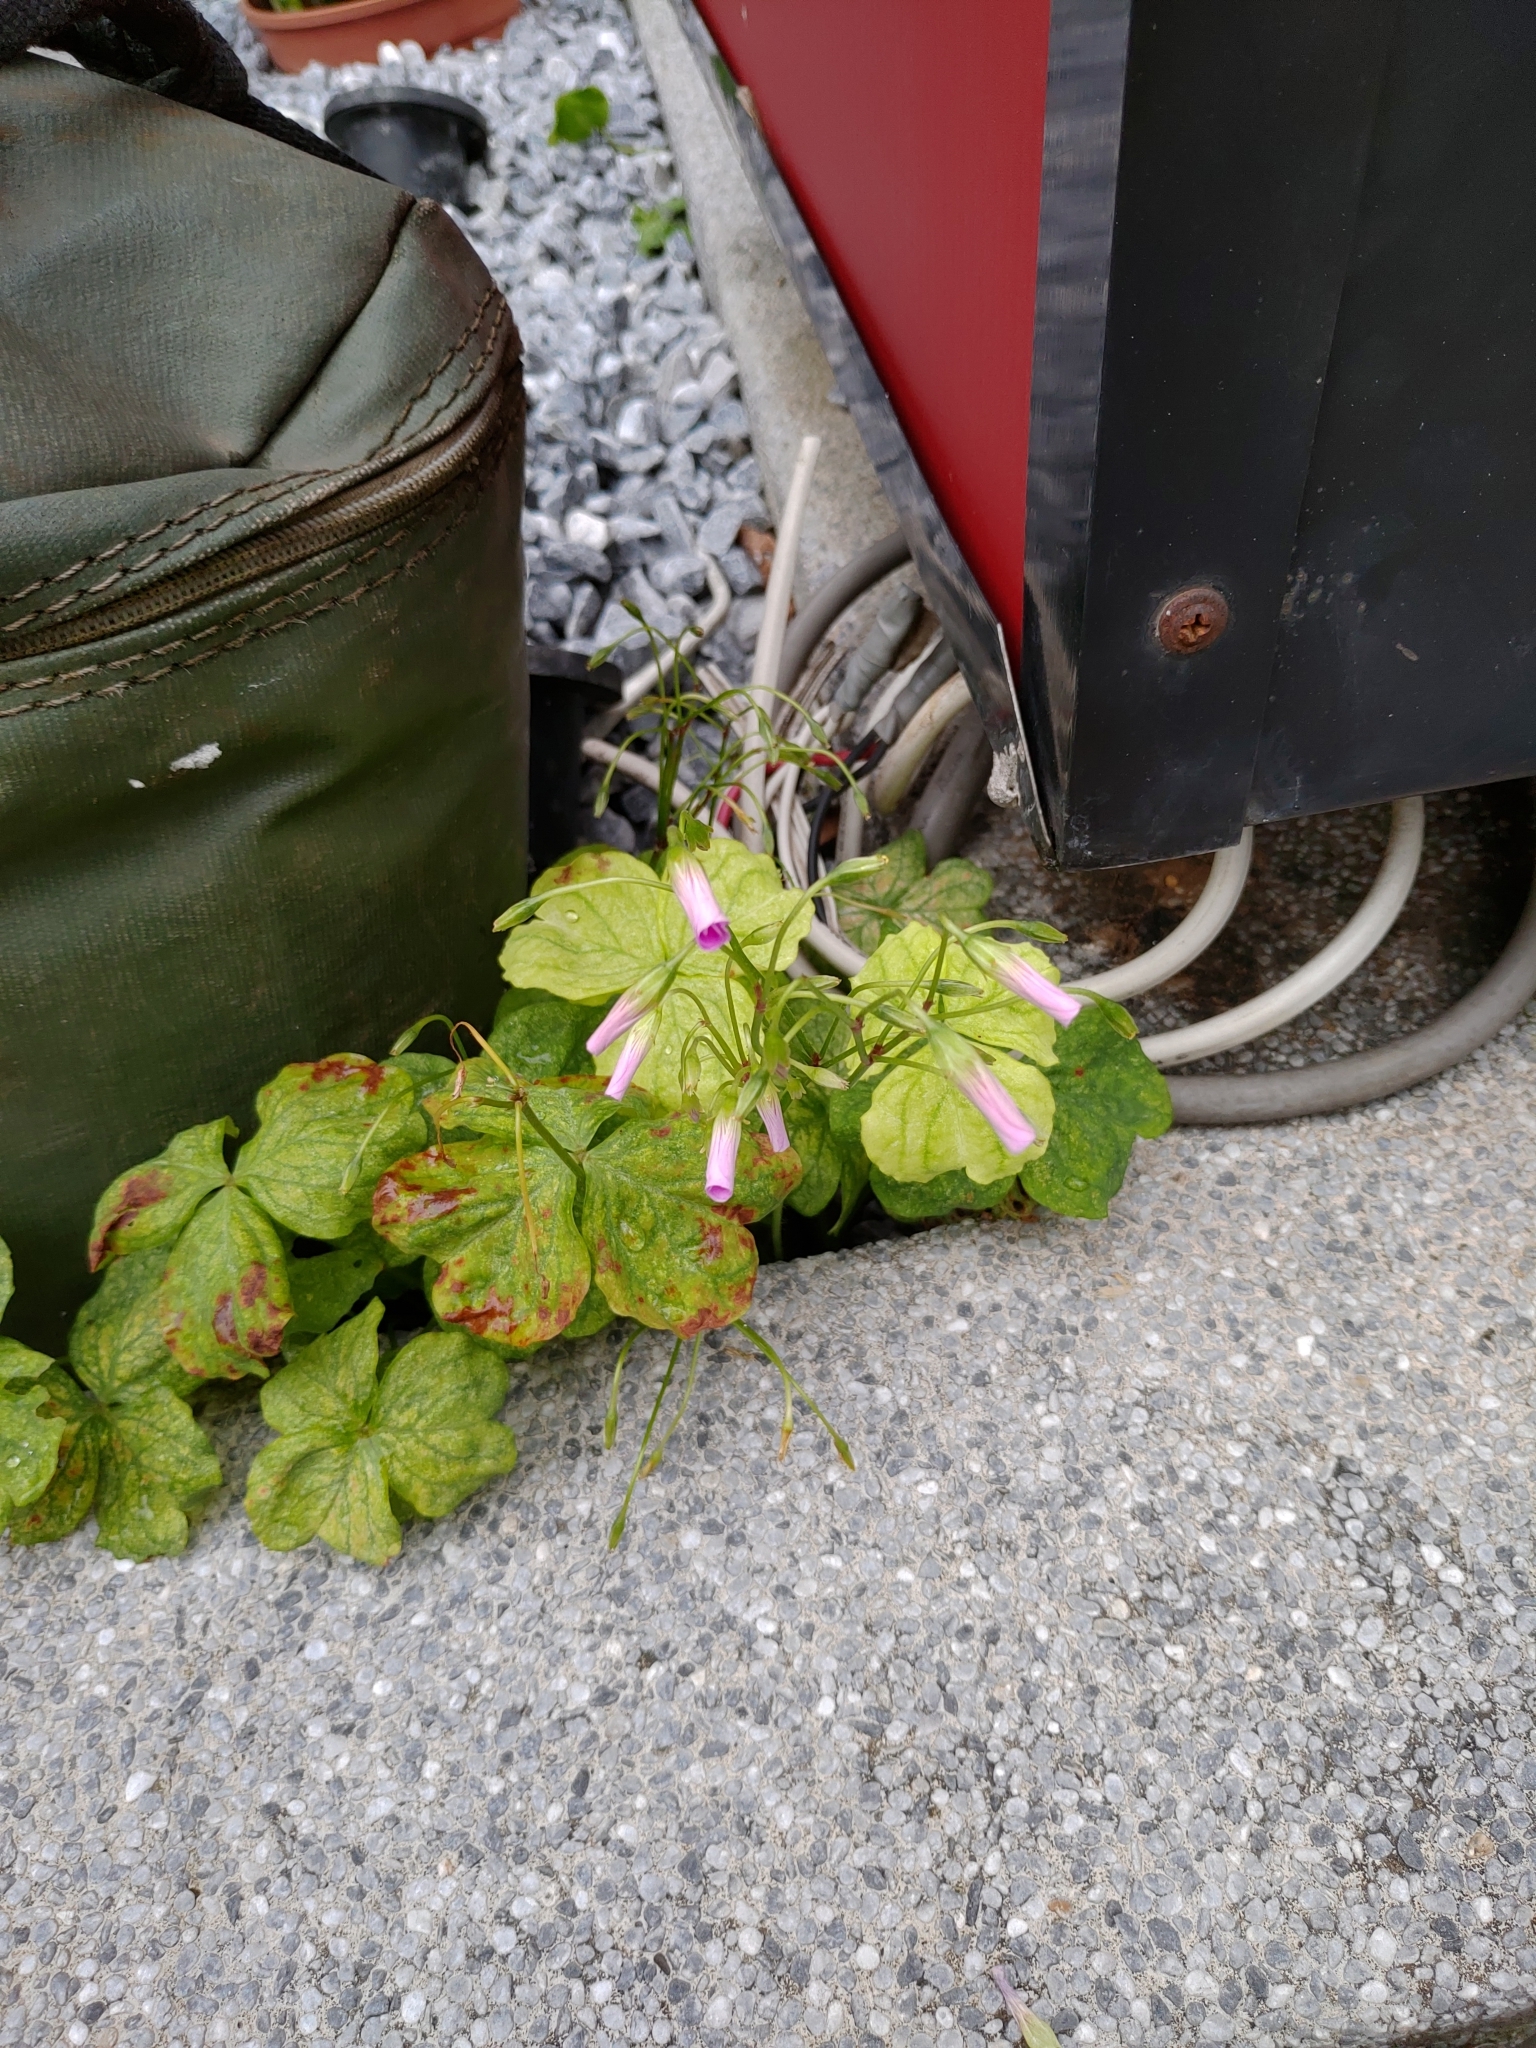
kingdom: Plantae
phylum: Tracheophyta
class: Magnoliopsida
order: Oxalidales
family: Oxalidaceae
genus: Oxalis
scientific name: Oxalis debilis
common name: Large-flowered pink-sorrel
